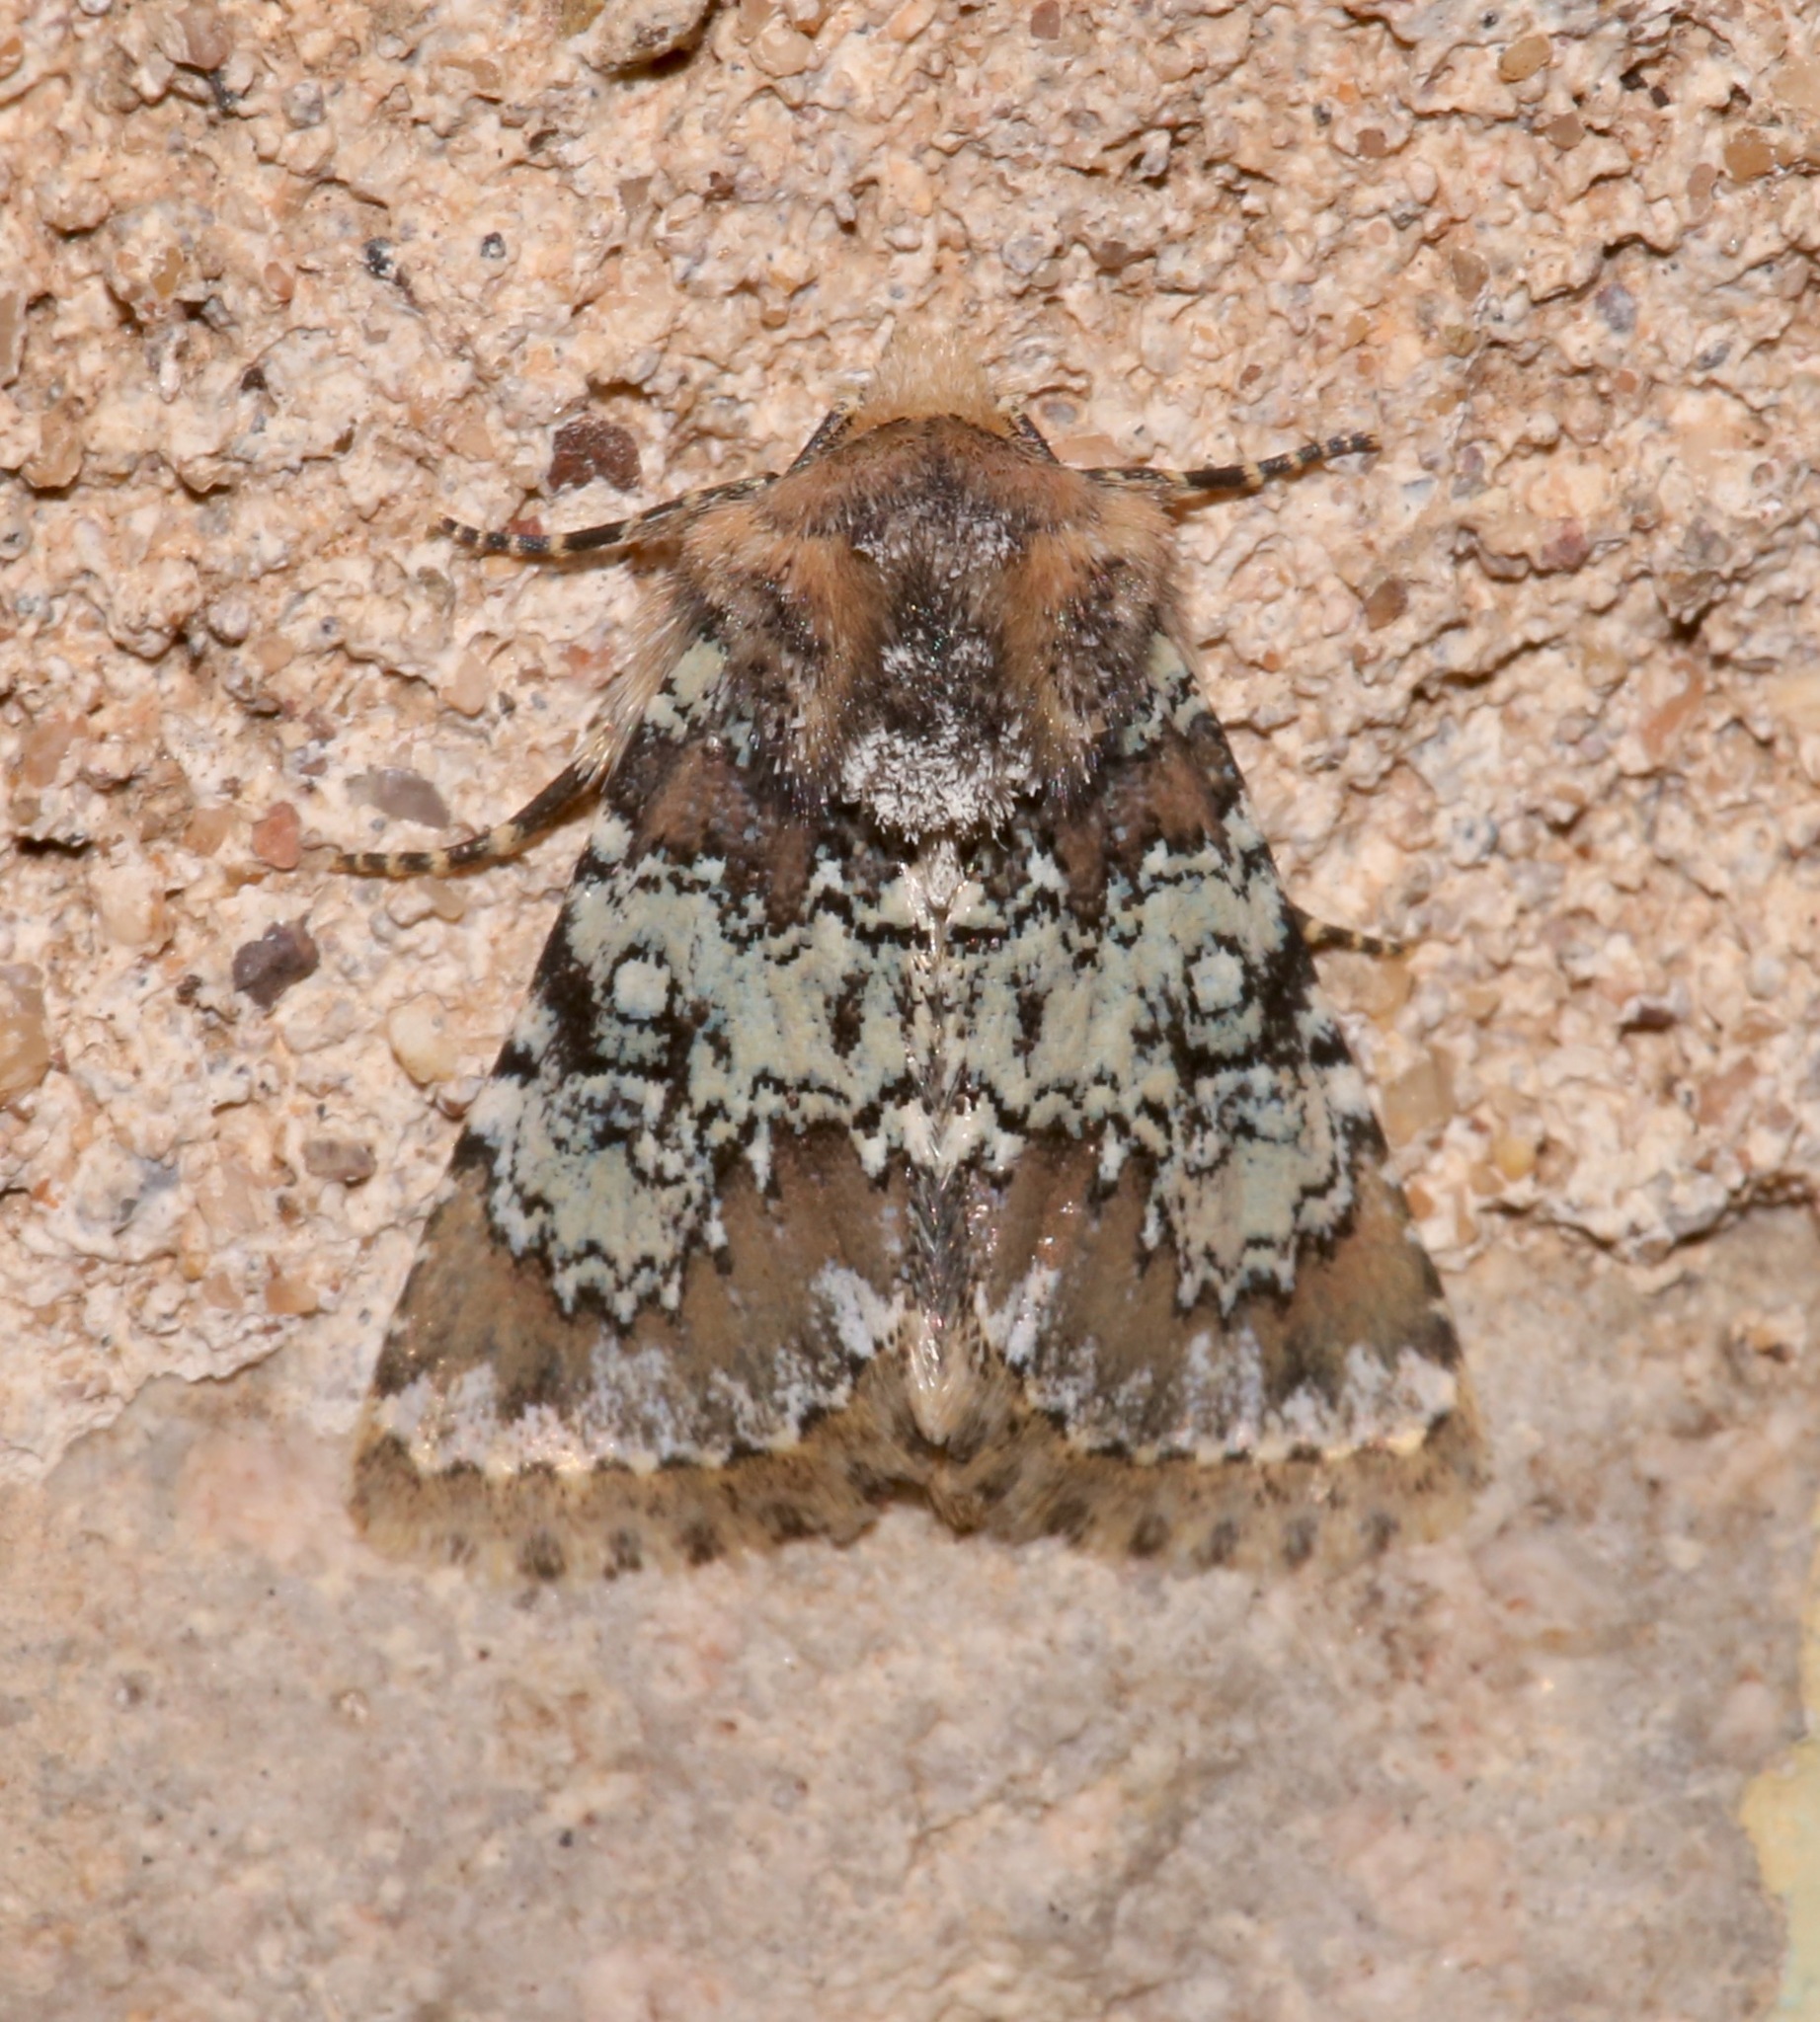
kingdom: Animalia
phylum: Arthropoda
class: Insecta
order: Lepidoptera
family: Noctuidae
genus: Hemibryomima
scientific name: Hemibryomima chryselectra
